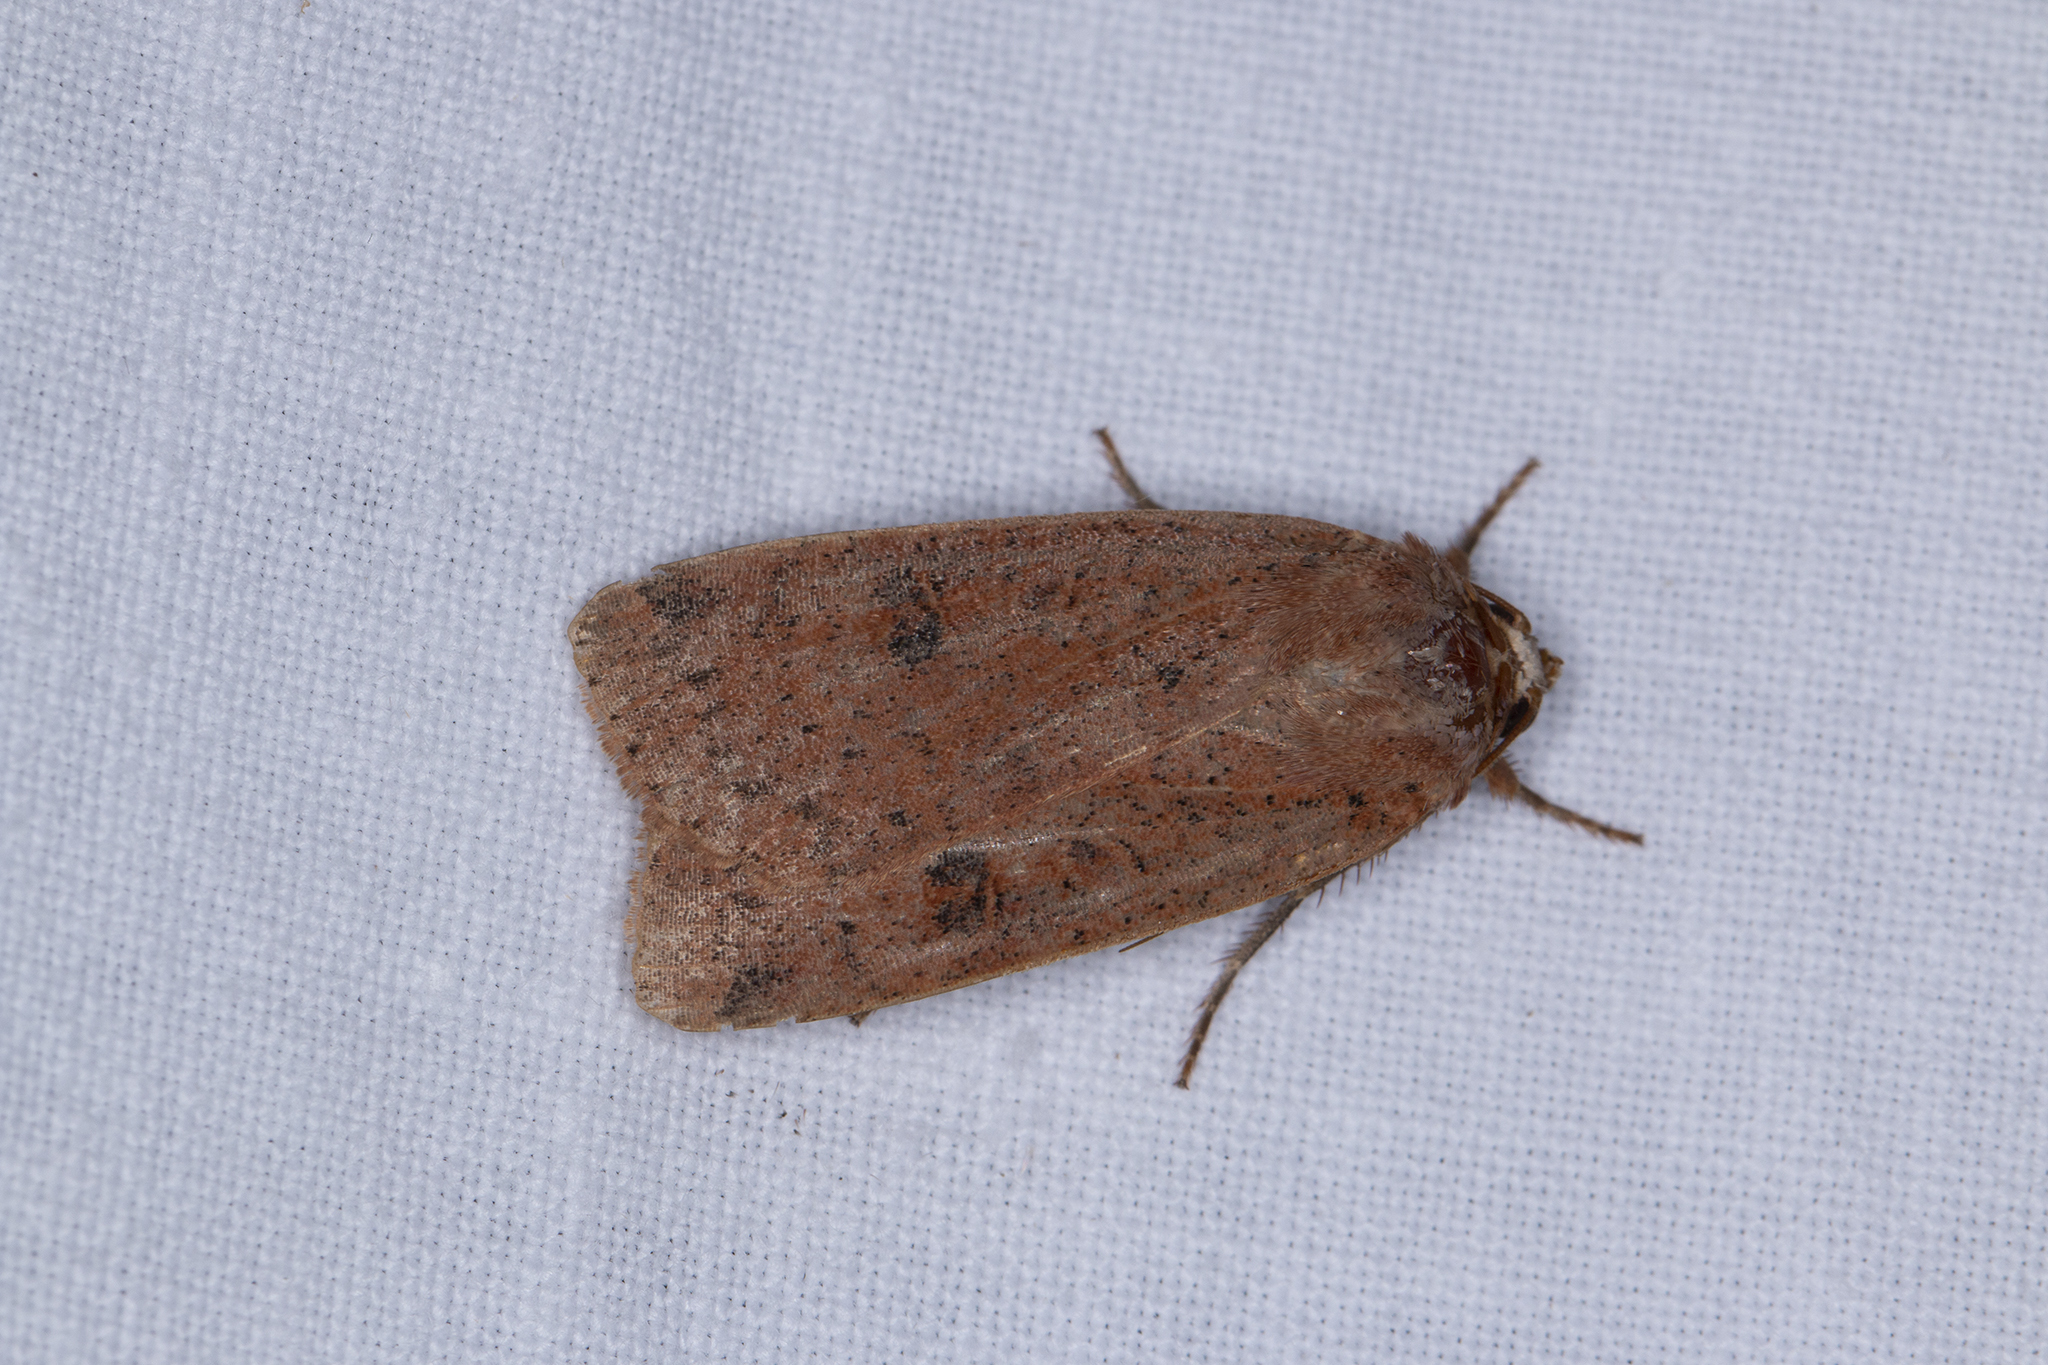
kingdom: Animalia
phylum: Arthropoda
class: Insecta
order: Lepidoptera
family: Noctuidae
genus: Noctua
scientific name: Noctua comes
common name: Lesser yellow underwing
